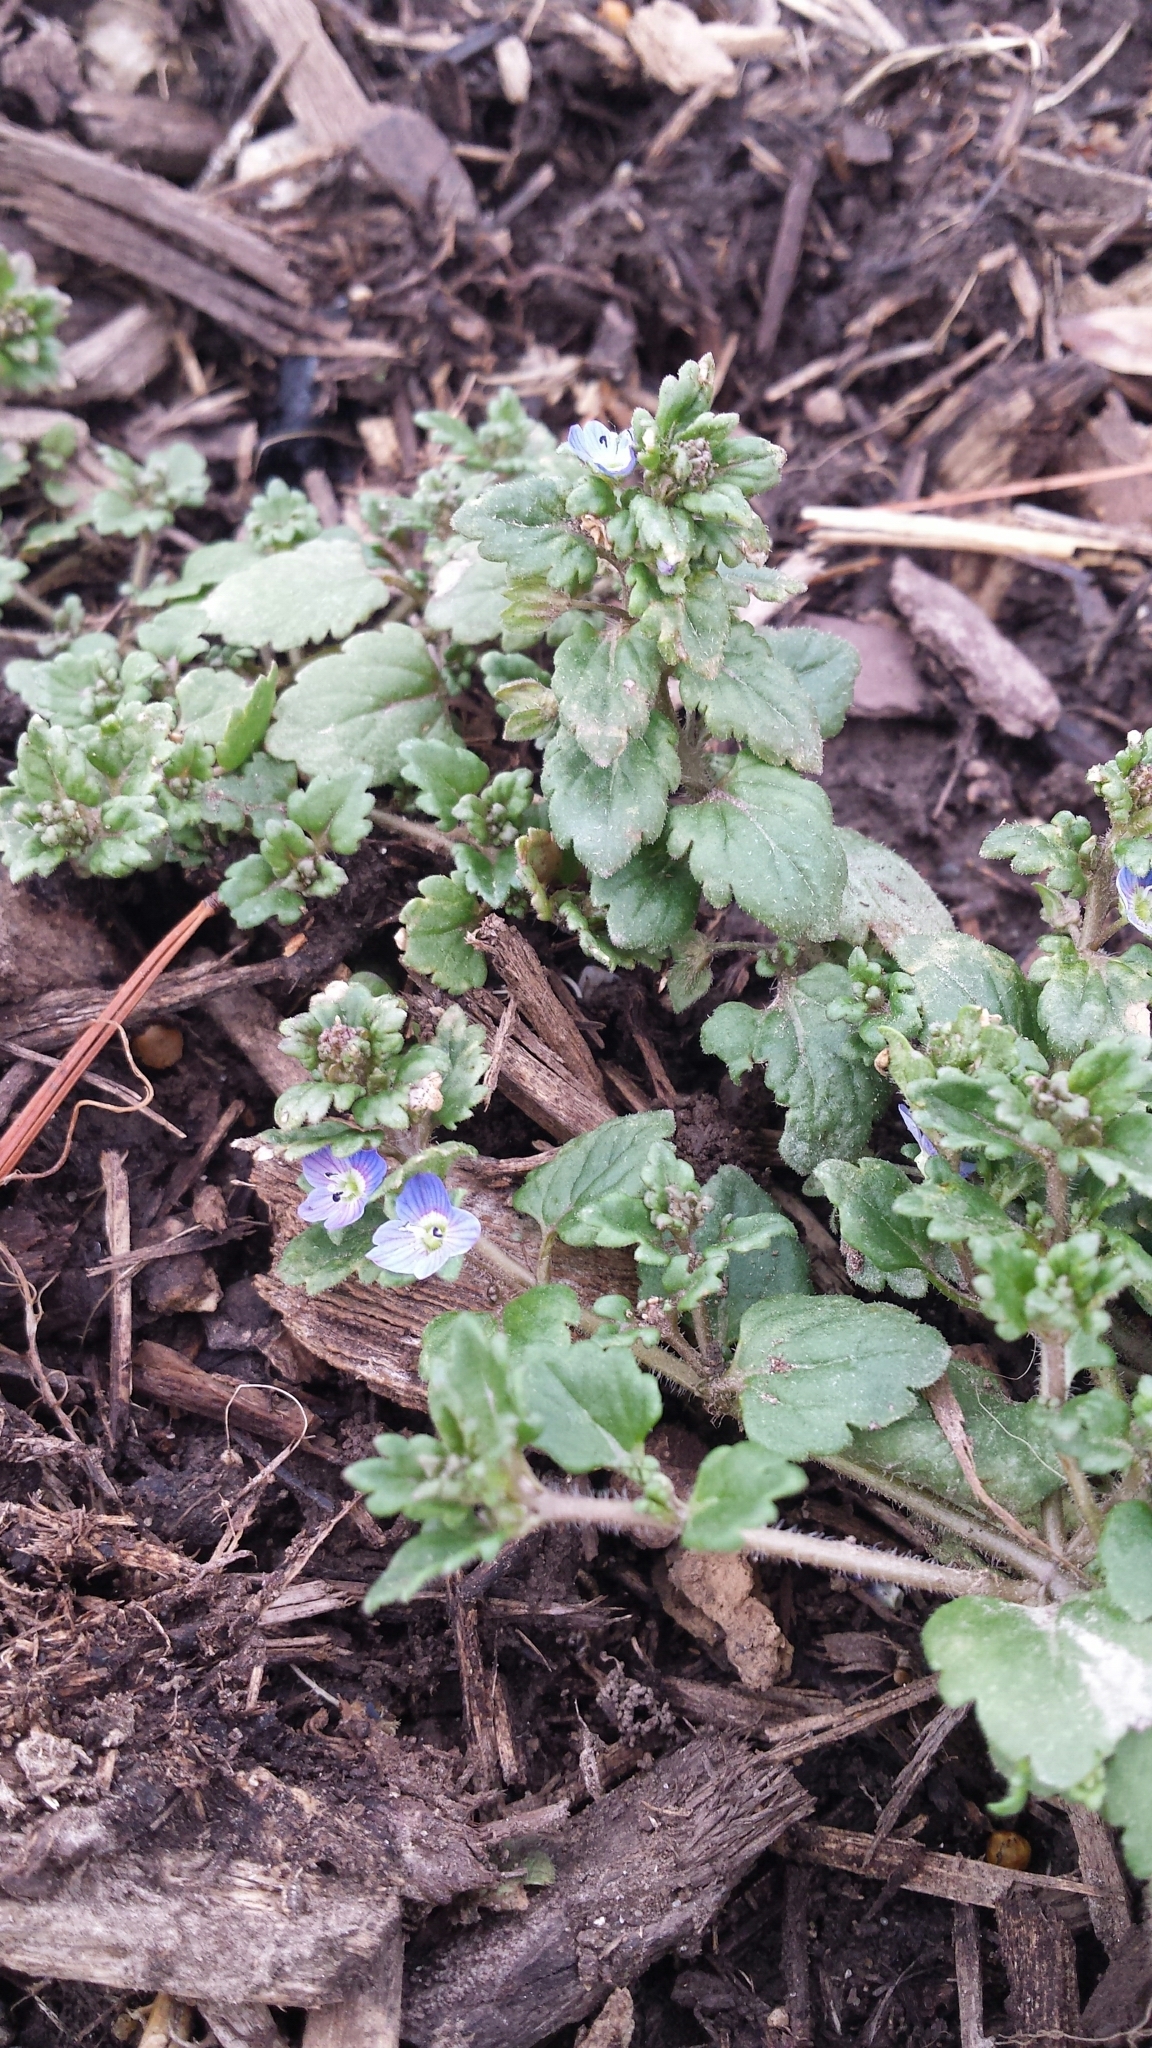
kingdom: Plantae
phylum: Tracheophyta
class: Magnoliopsida
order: Lamiales
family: Plantaginaceae
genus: Veronica
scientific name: Veronica polita
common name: Grey field-speedwell
